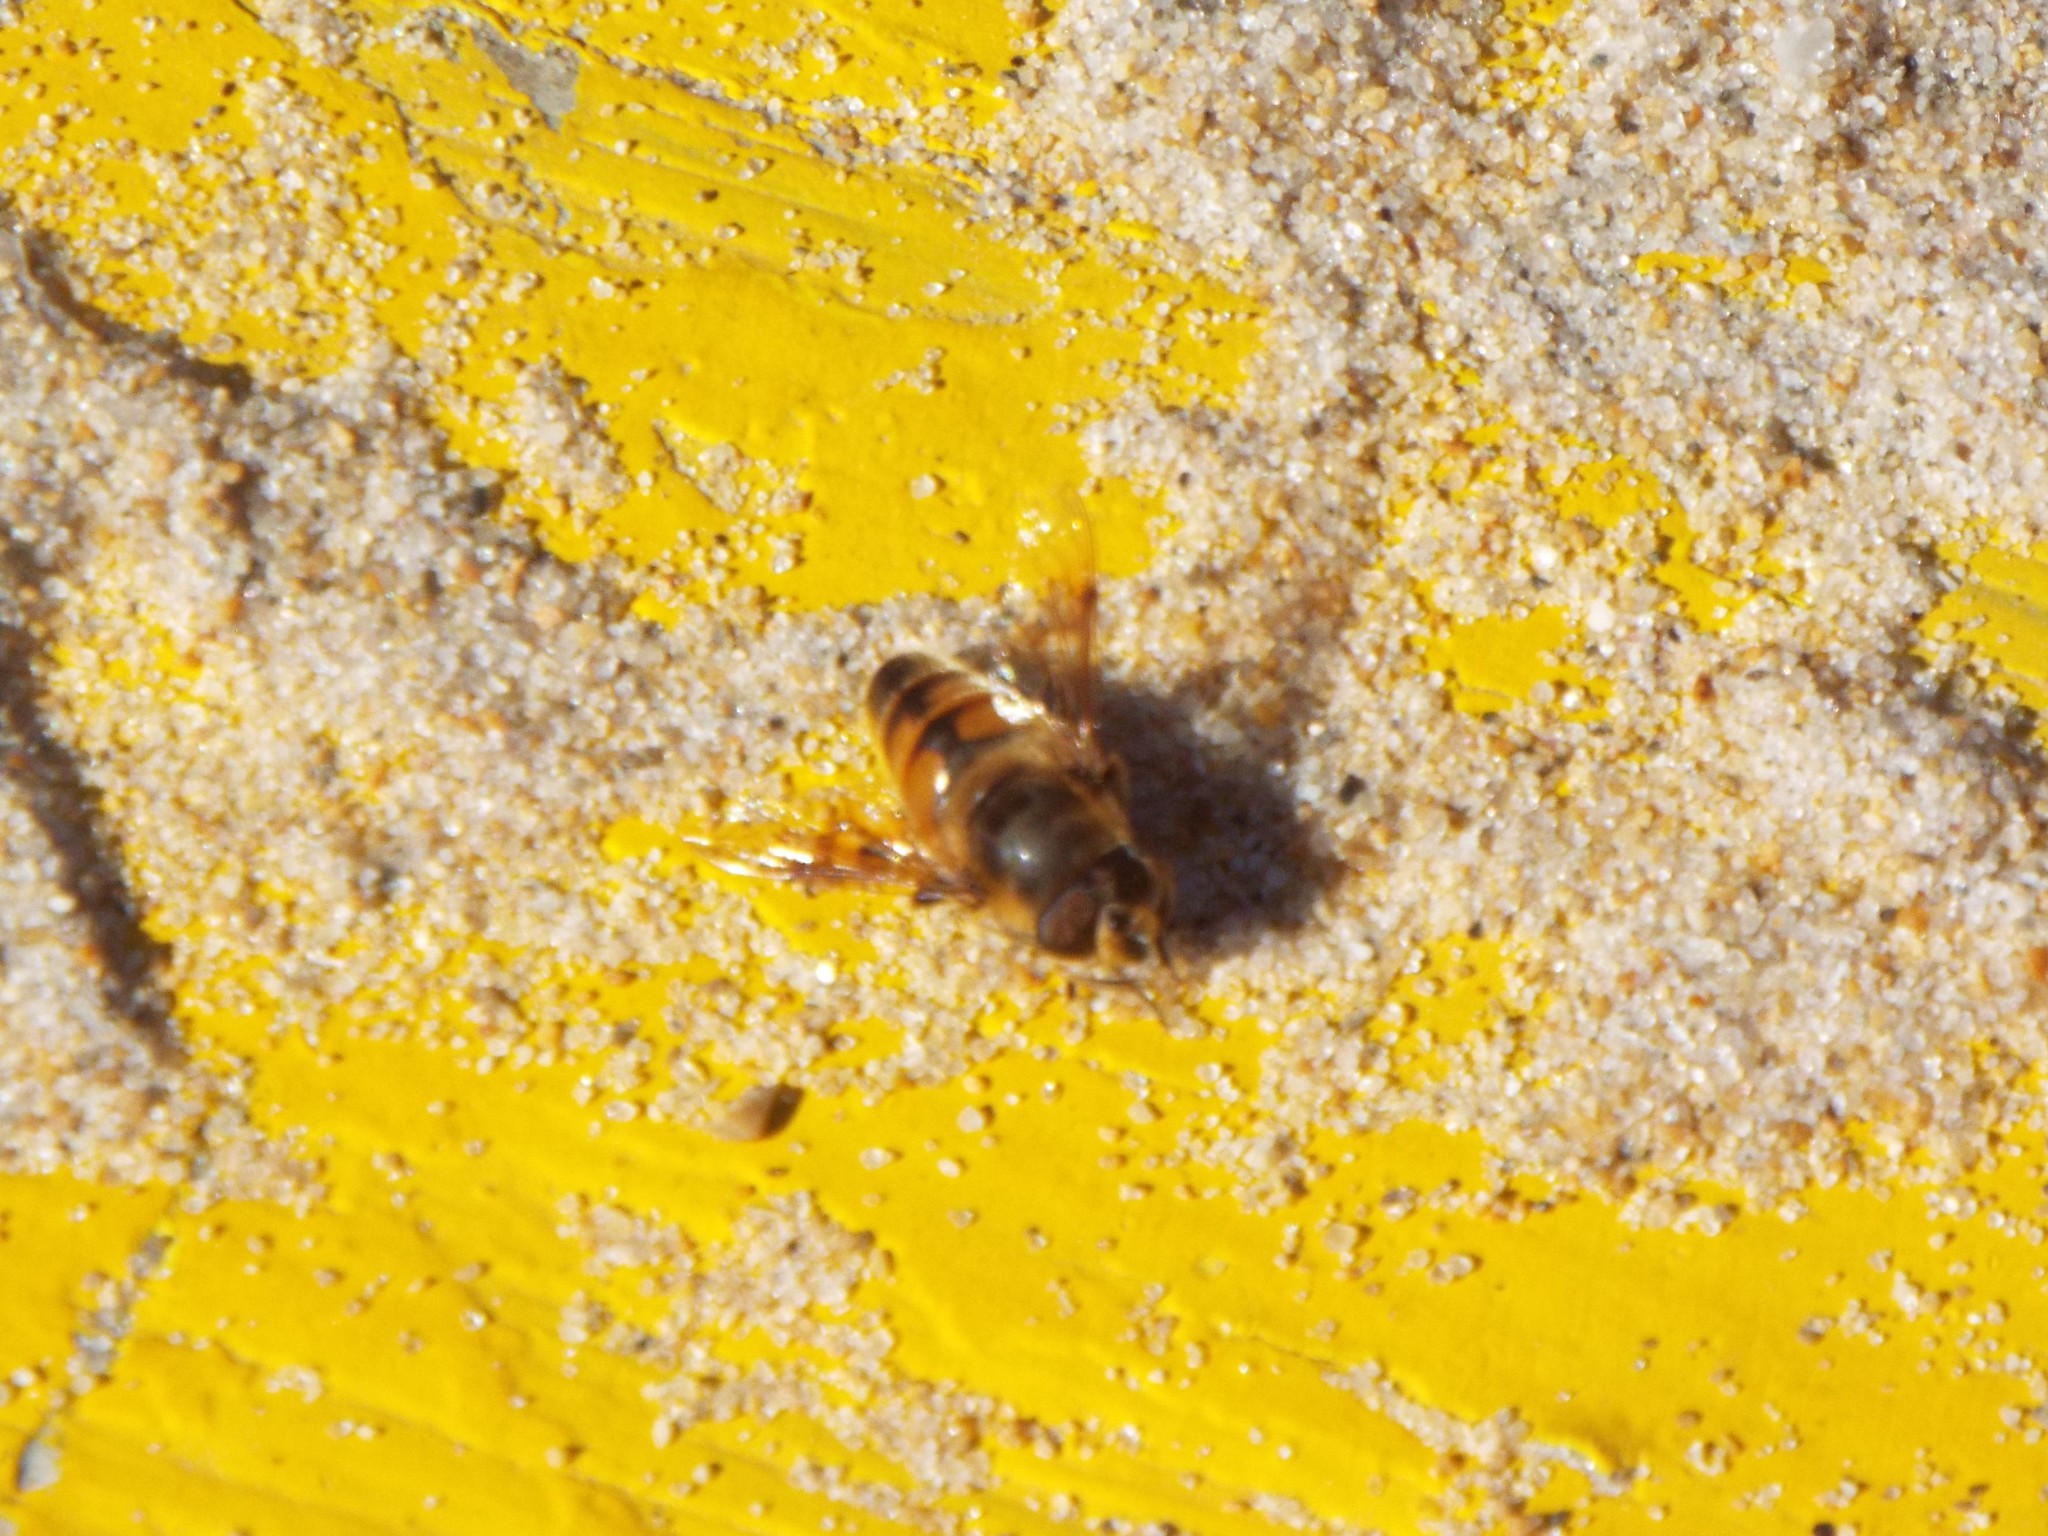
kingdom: Animalia
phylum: Arthropoda
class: Insecta
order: Diptera
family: Syrphidae
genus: Eristalis
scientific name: Eristalis tenax
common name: Drone fly
